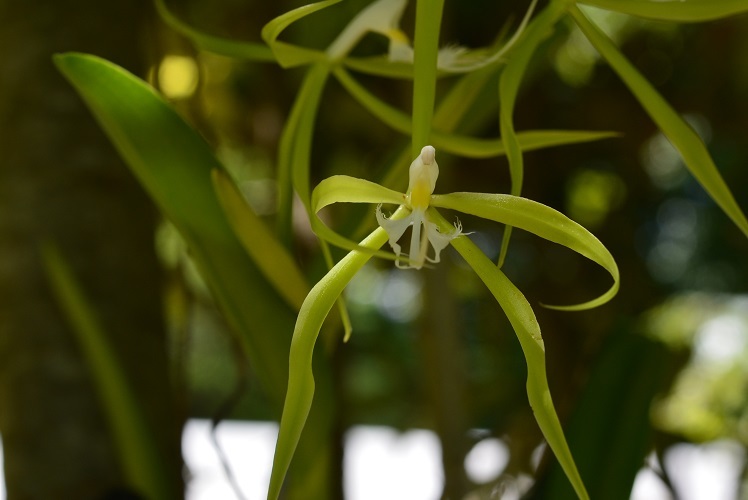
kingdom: Plantae
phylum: Tracheophyta
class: Liliopsida
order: Asparagales
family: Orchidaceae
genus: Epidendrum
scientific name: Epidendrum ciliare
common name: Eyelash orchid
